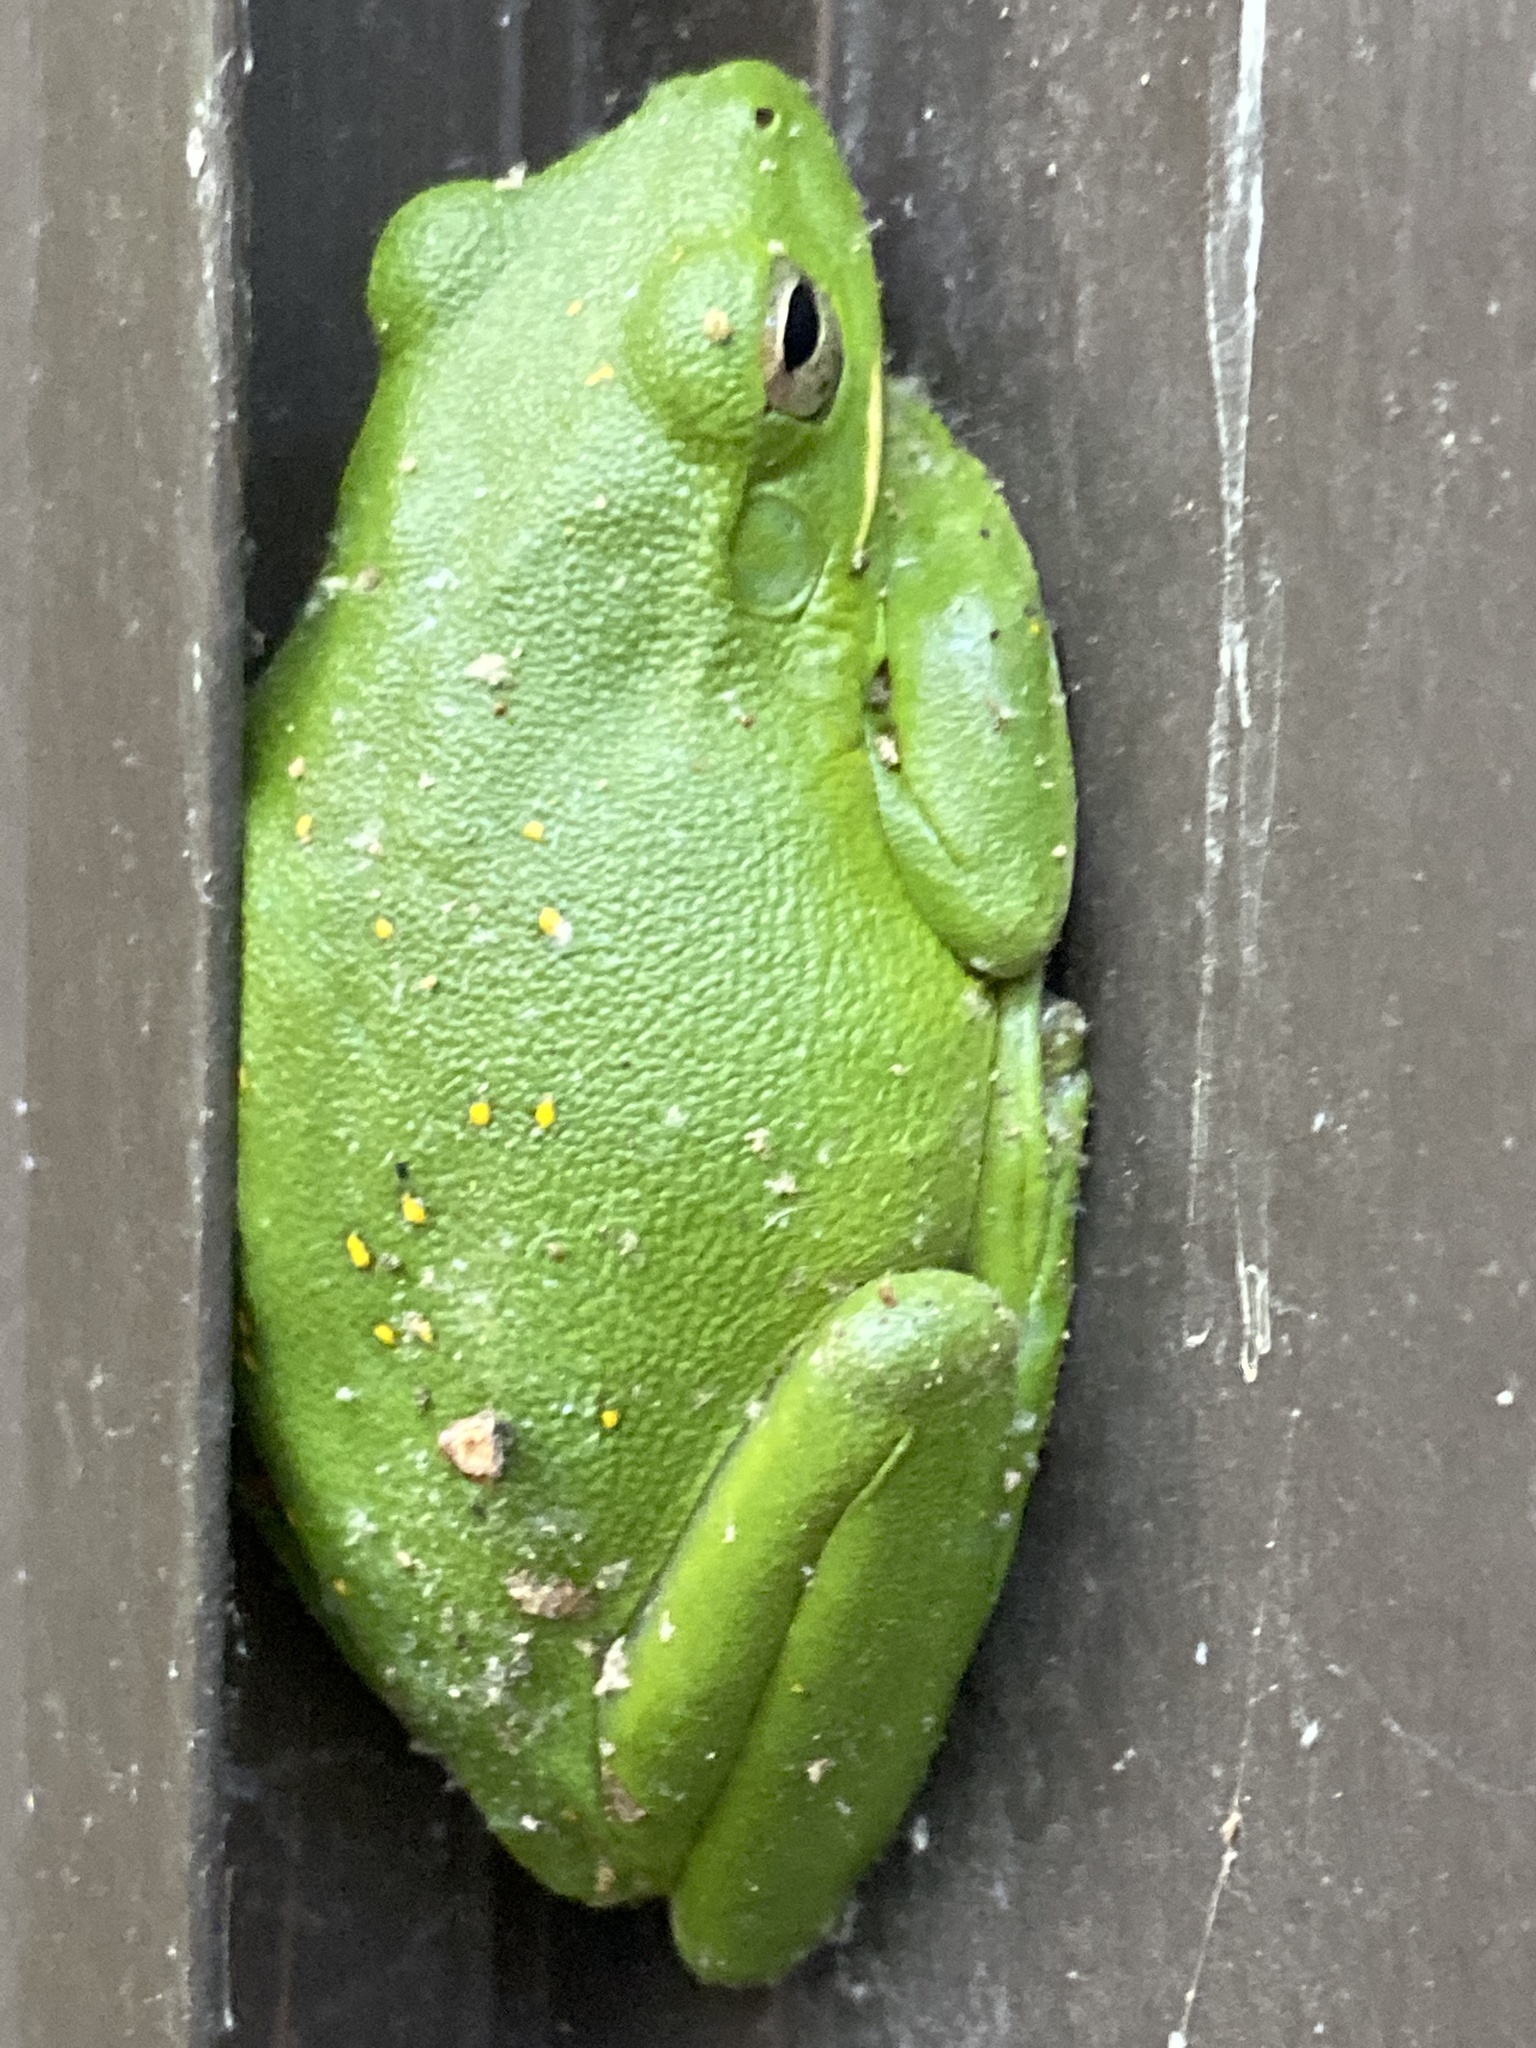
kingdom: Animalia
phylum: Chordata
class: Amphibia
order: Anura
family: Hylidae
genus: Dryophytes
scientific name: Dryophytes cinereus
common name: Green treefrog
